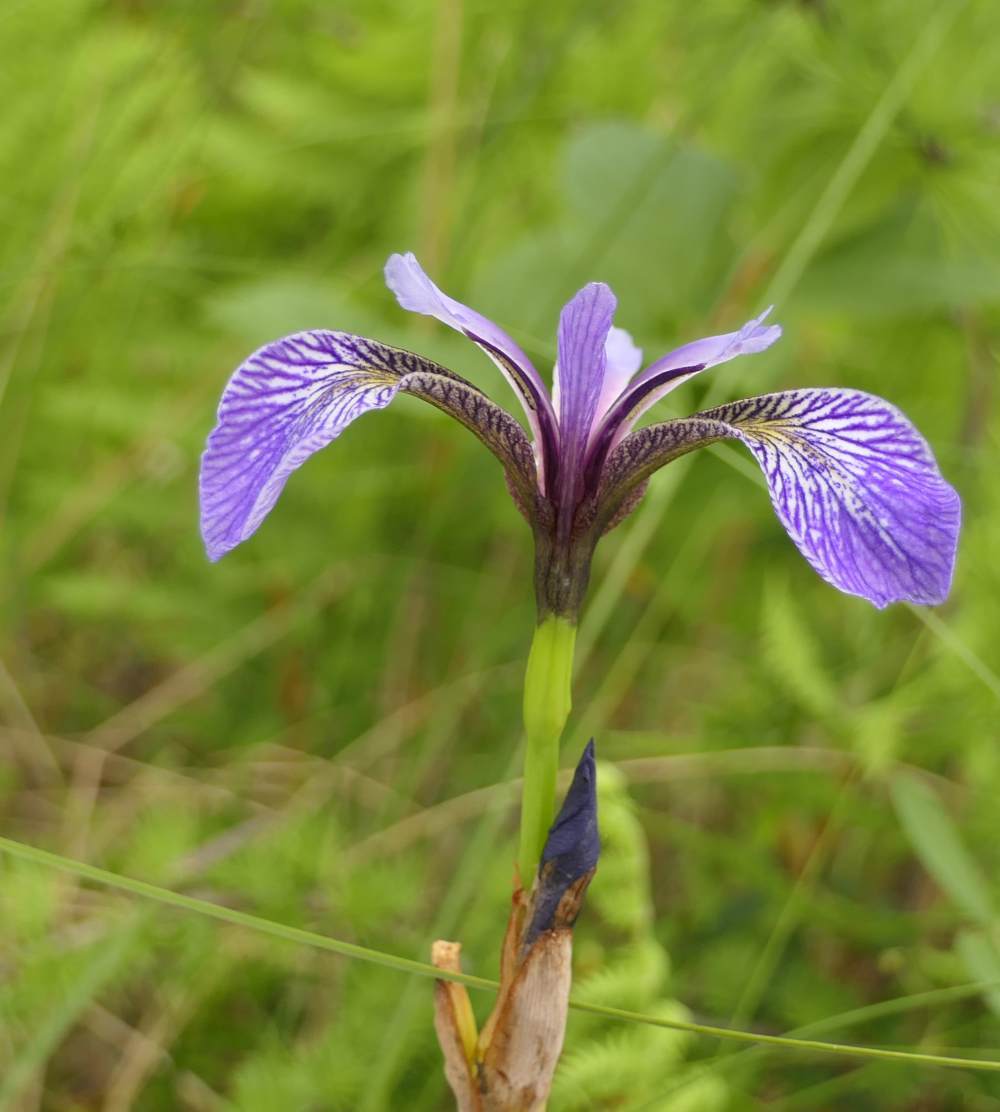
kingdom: Plantae
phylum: Tracheophyta
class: Liliopsida
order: Asparagales
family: Iridaceae
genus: Iris
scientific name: Iris versicolor
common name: Purple iris
